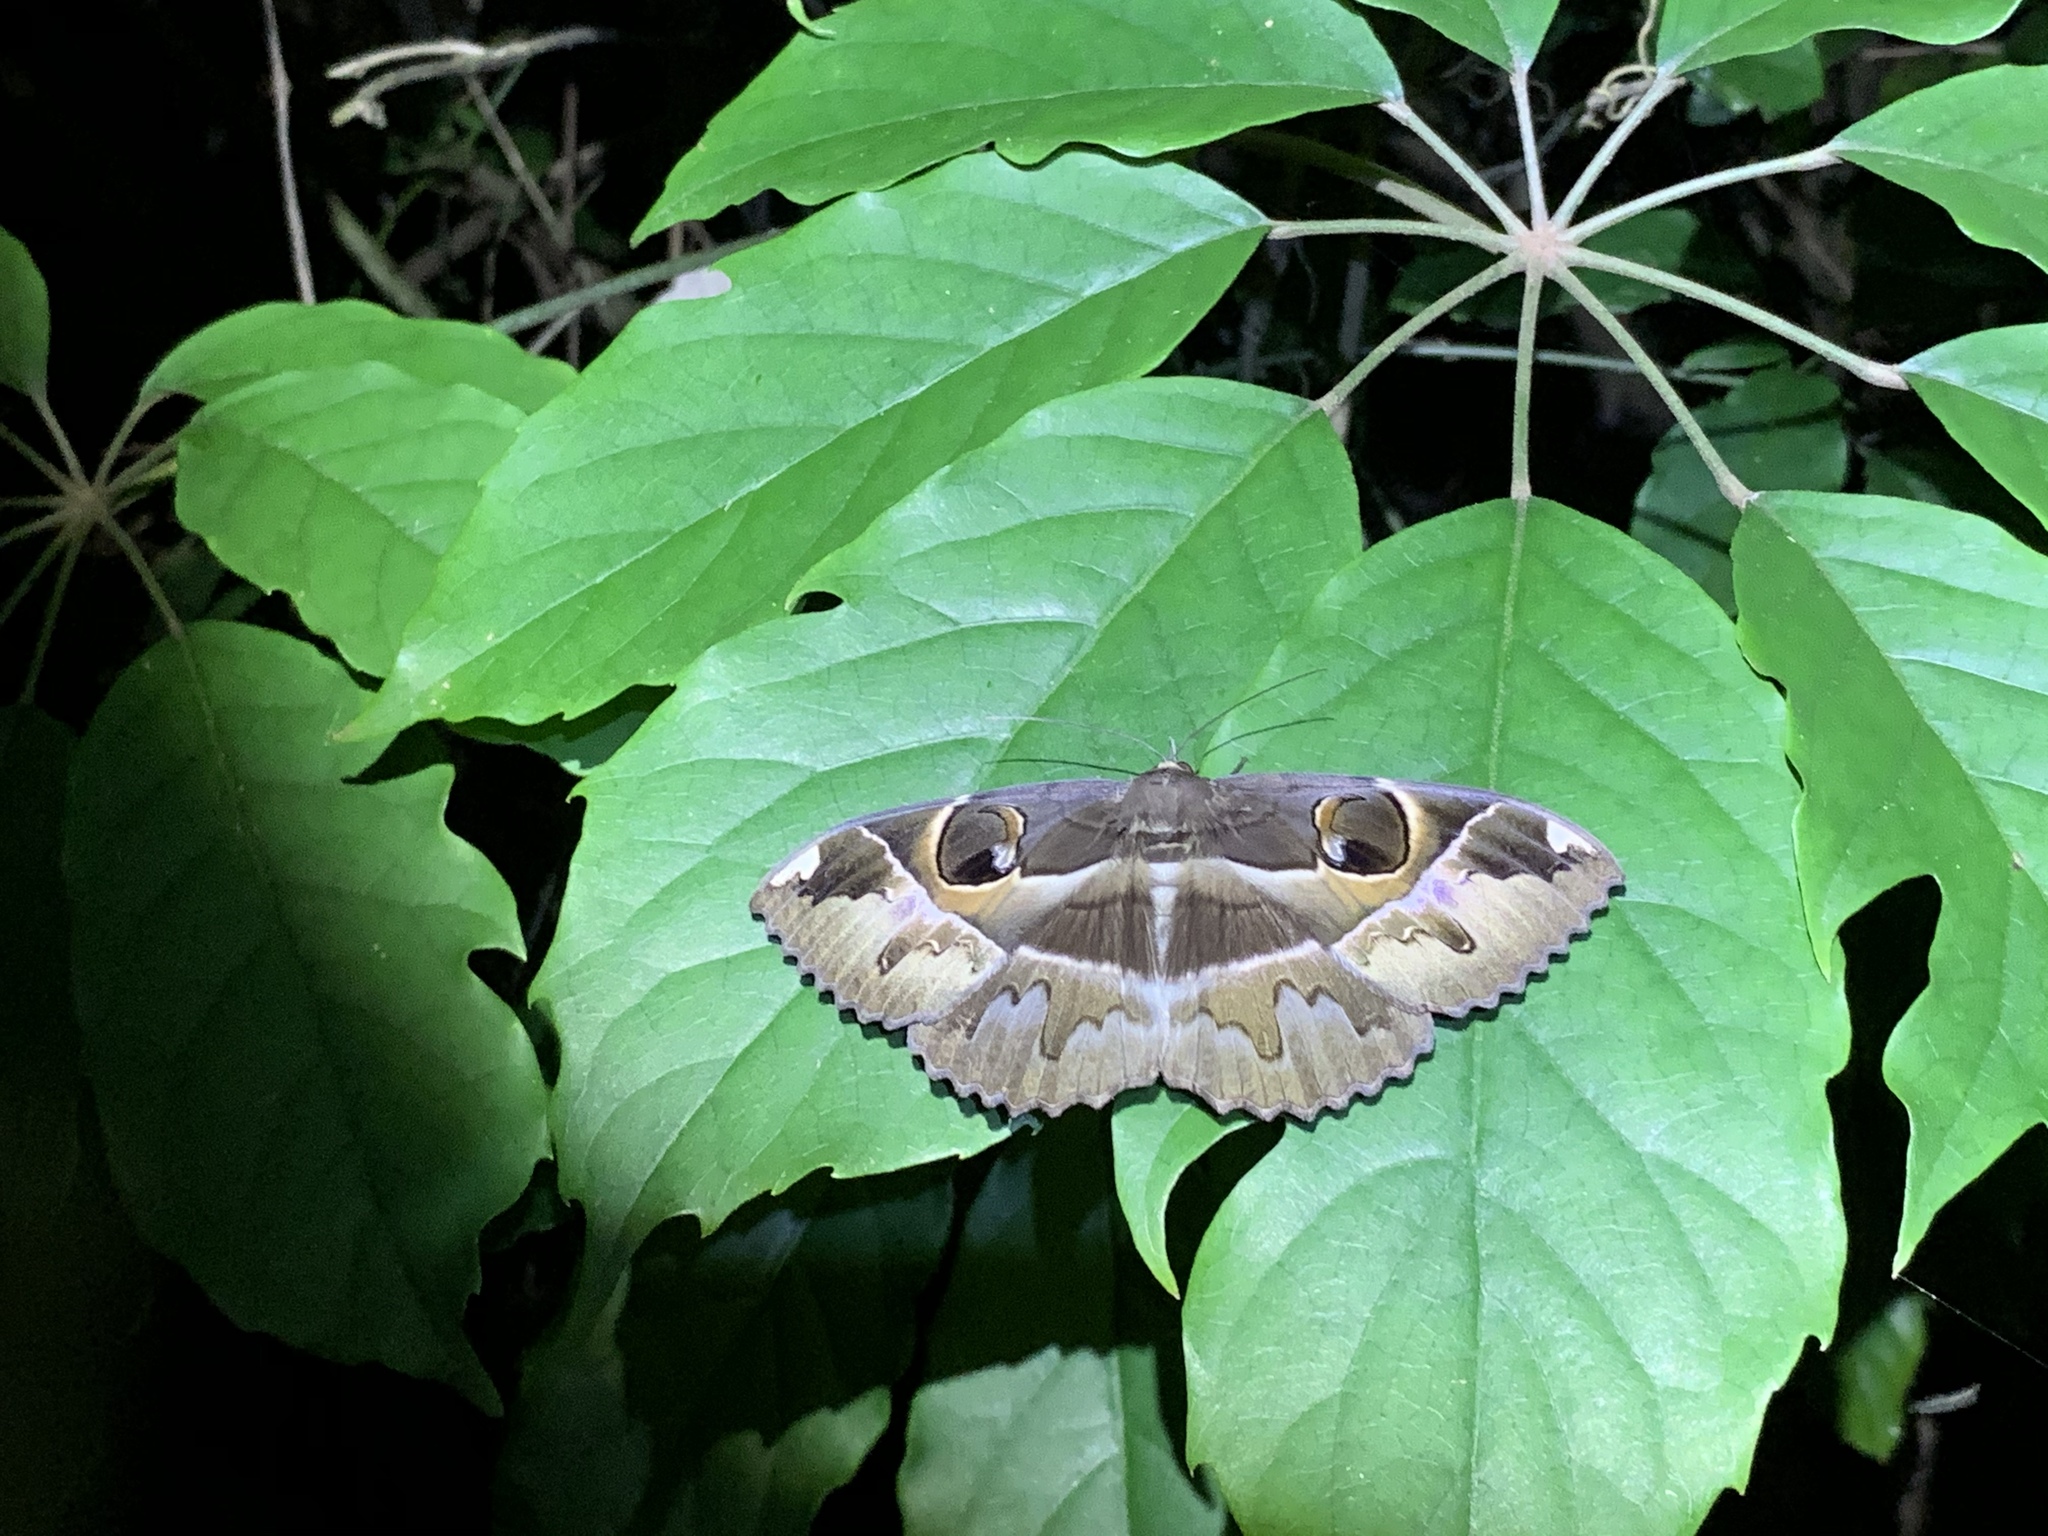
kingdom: Animalia
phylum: Arthropoda
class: Insecta
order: Lepidoptera
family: Erebidae
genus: Erebus
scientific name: Erebus ephesperis
